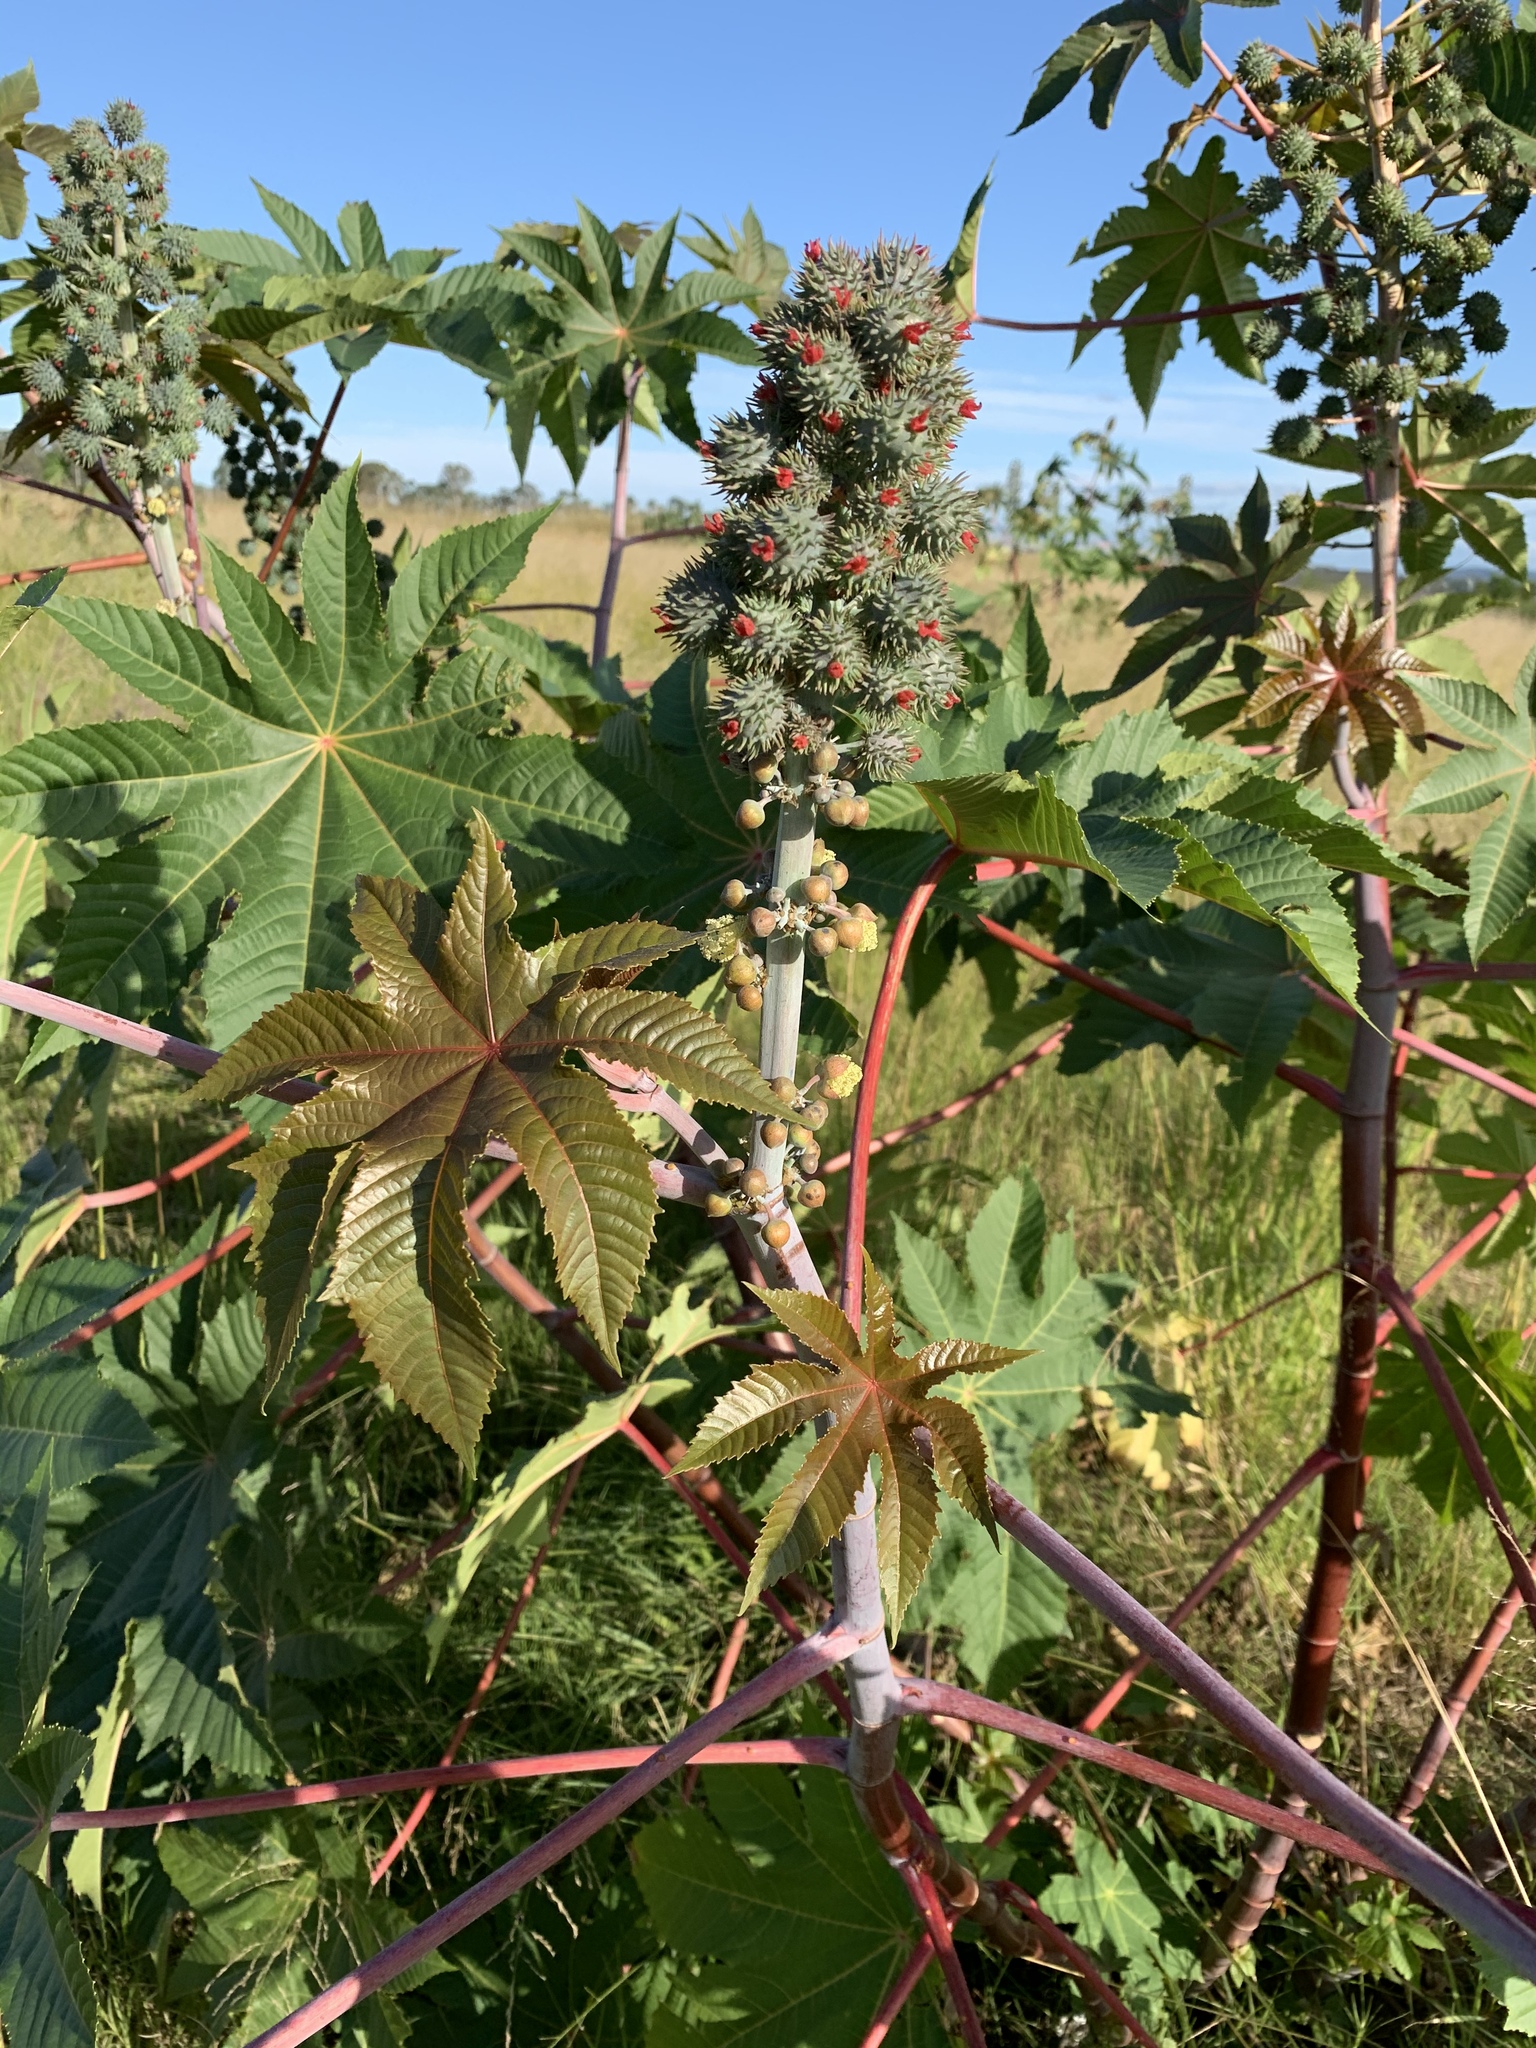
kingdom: Plantae
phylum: Tracheophyta
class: Magnoliopsida
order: Malpighiales
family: Euphorbiaceae
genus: Ricinus
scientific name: Ricinus communis
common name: Castor-oil-plant
